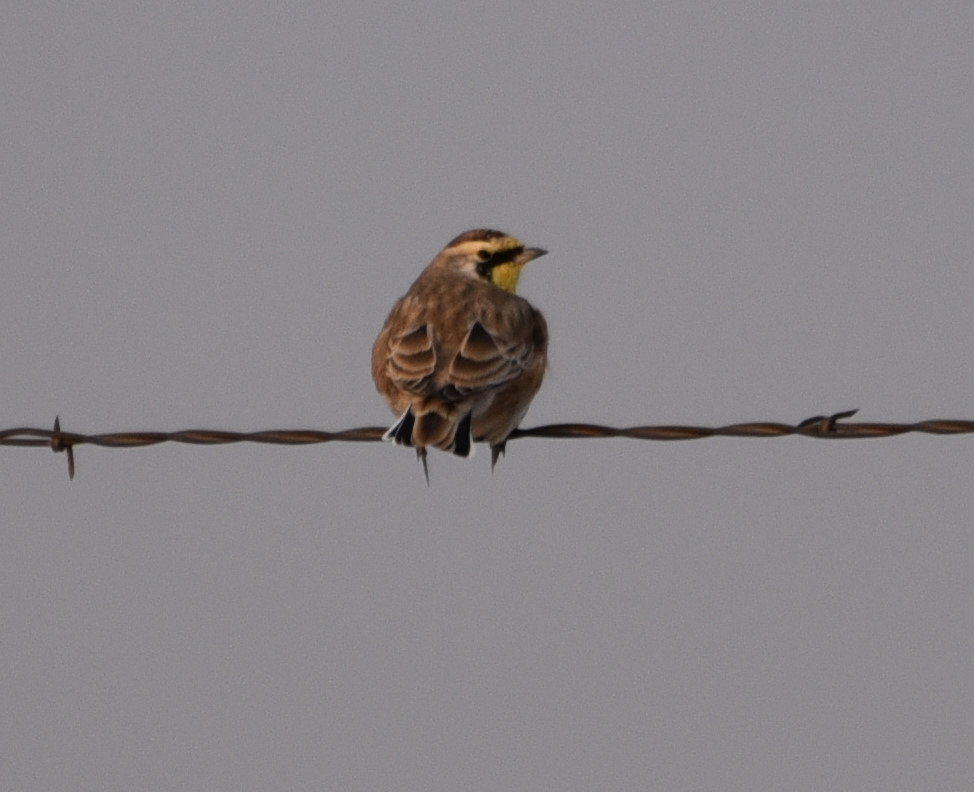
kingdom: Animalia
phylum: Chordata
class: Aves
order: Passeriformes
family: Alaudidae
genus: Eremophila
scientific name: Eremophila alpestris
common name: Horned lark
